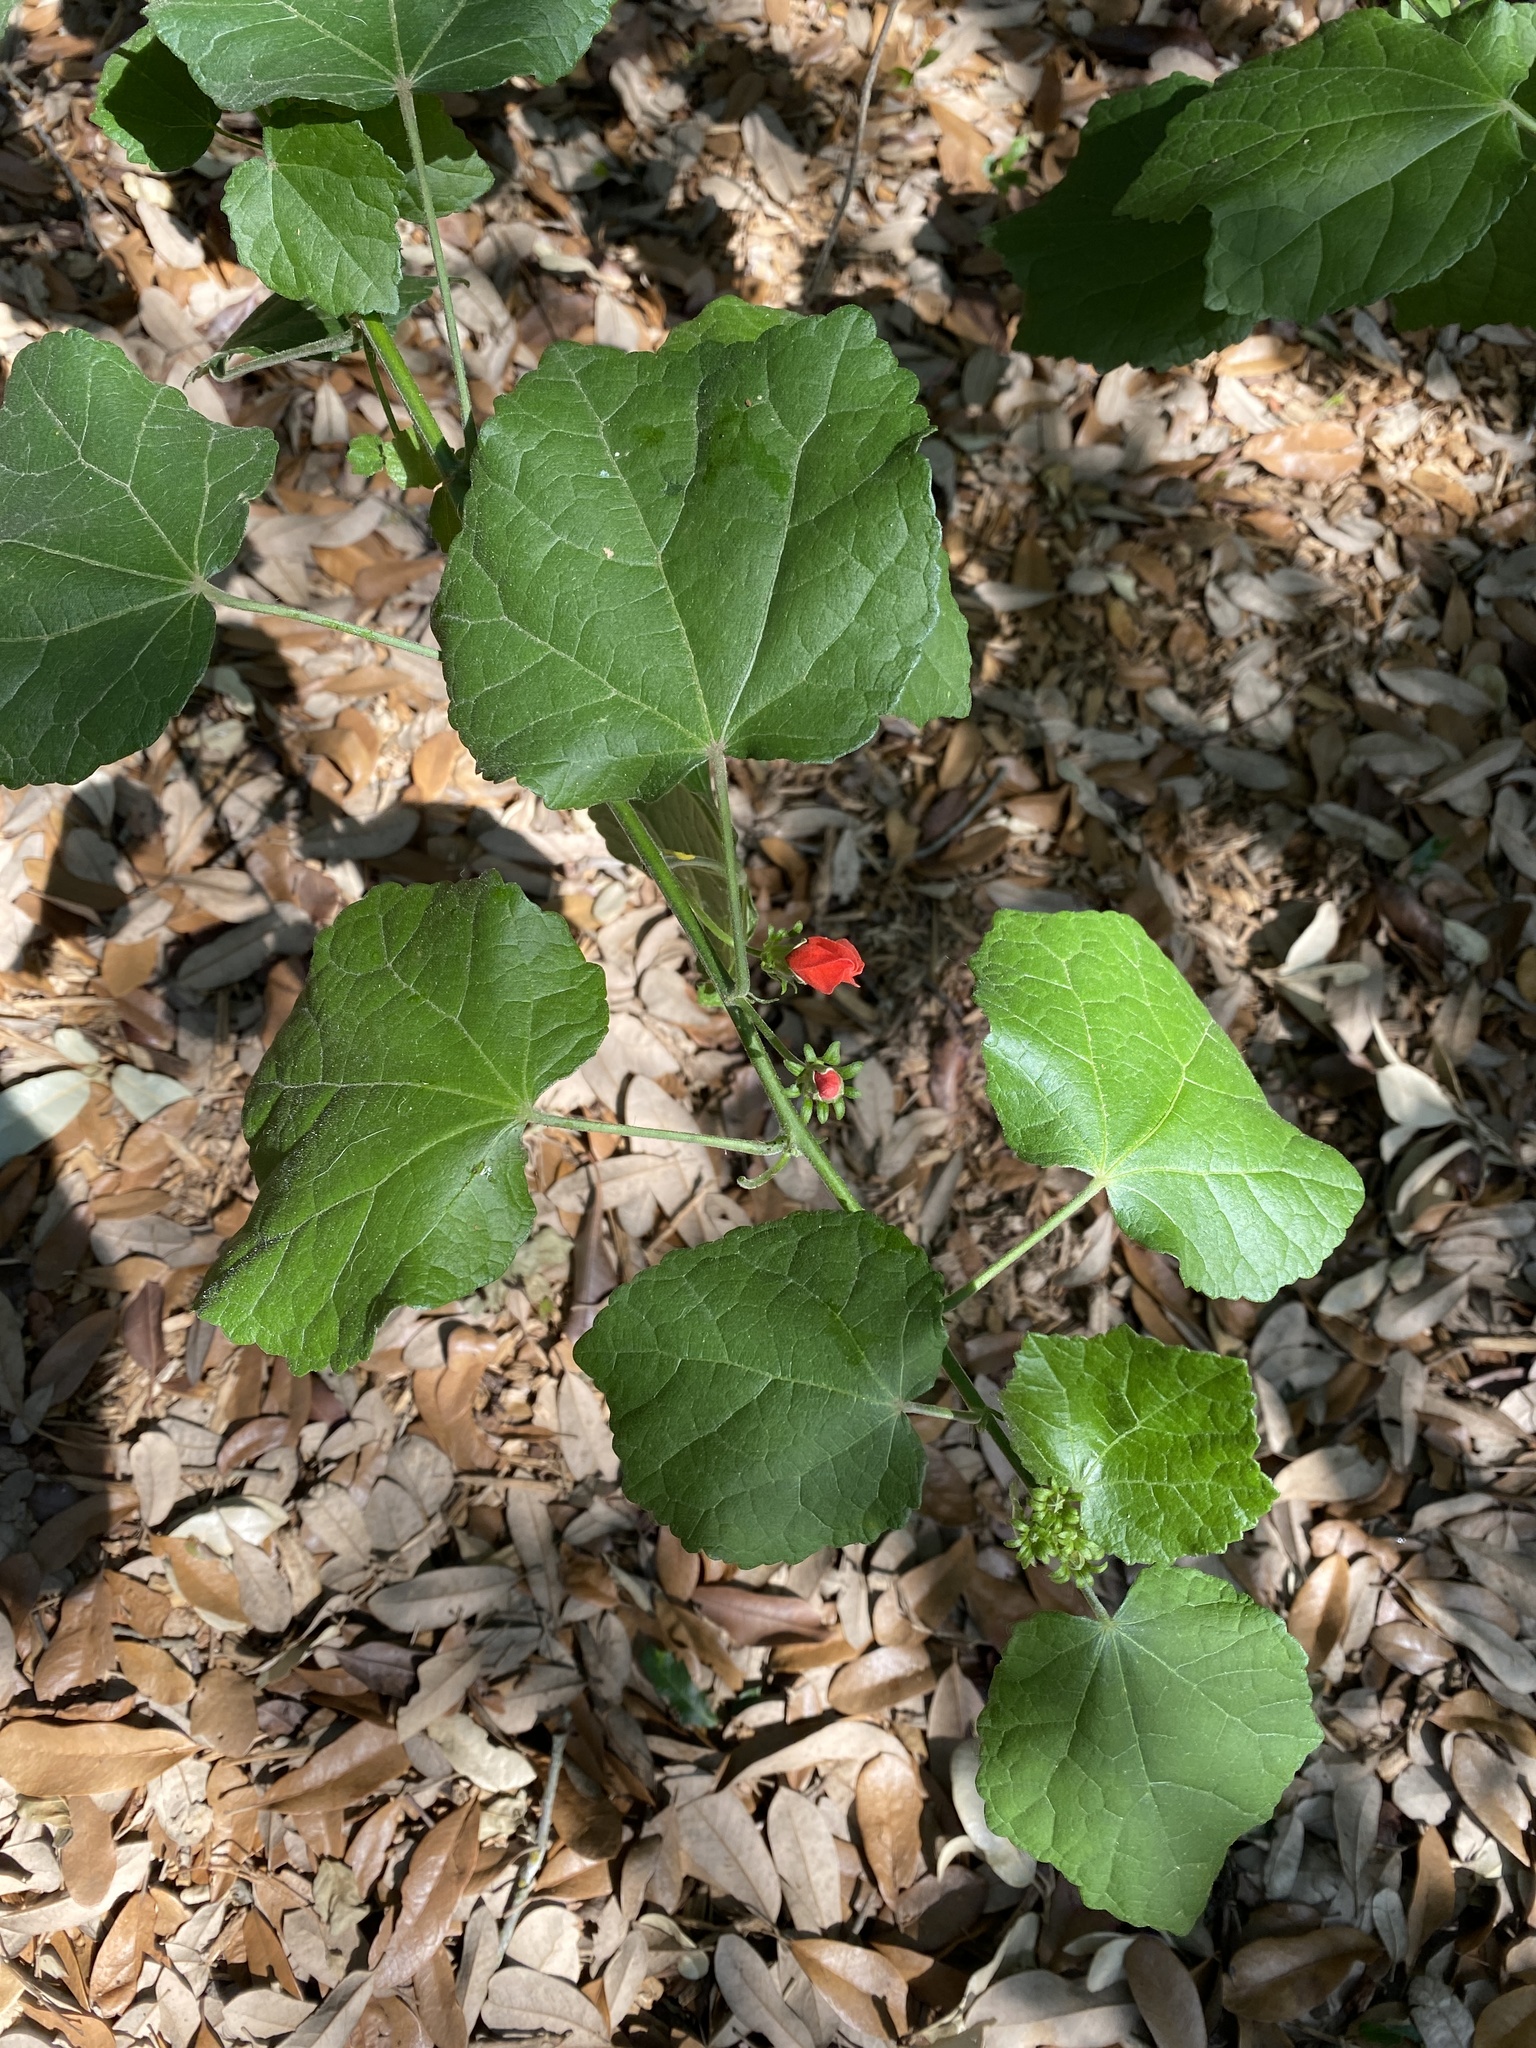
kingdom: Plantae
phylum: Tracheophyta
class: Magnoliopsida
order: Malvales
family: Malvaceae
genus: Malvaviscus
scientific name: Malvaviscus arboreus
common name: Wax mallow
